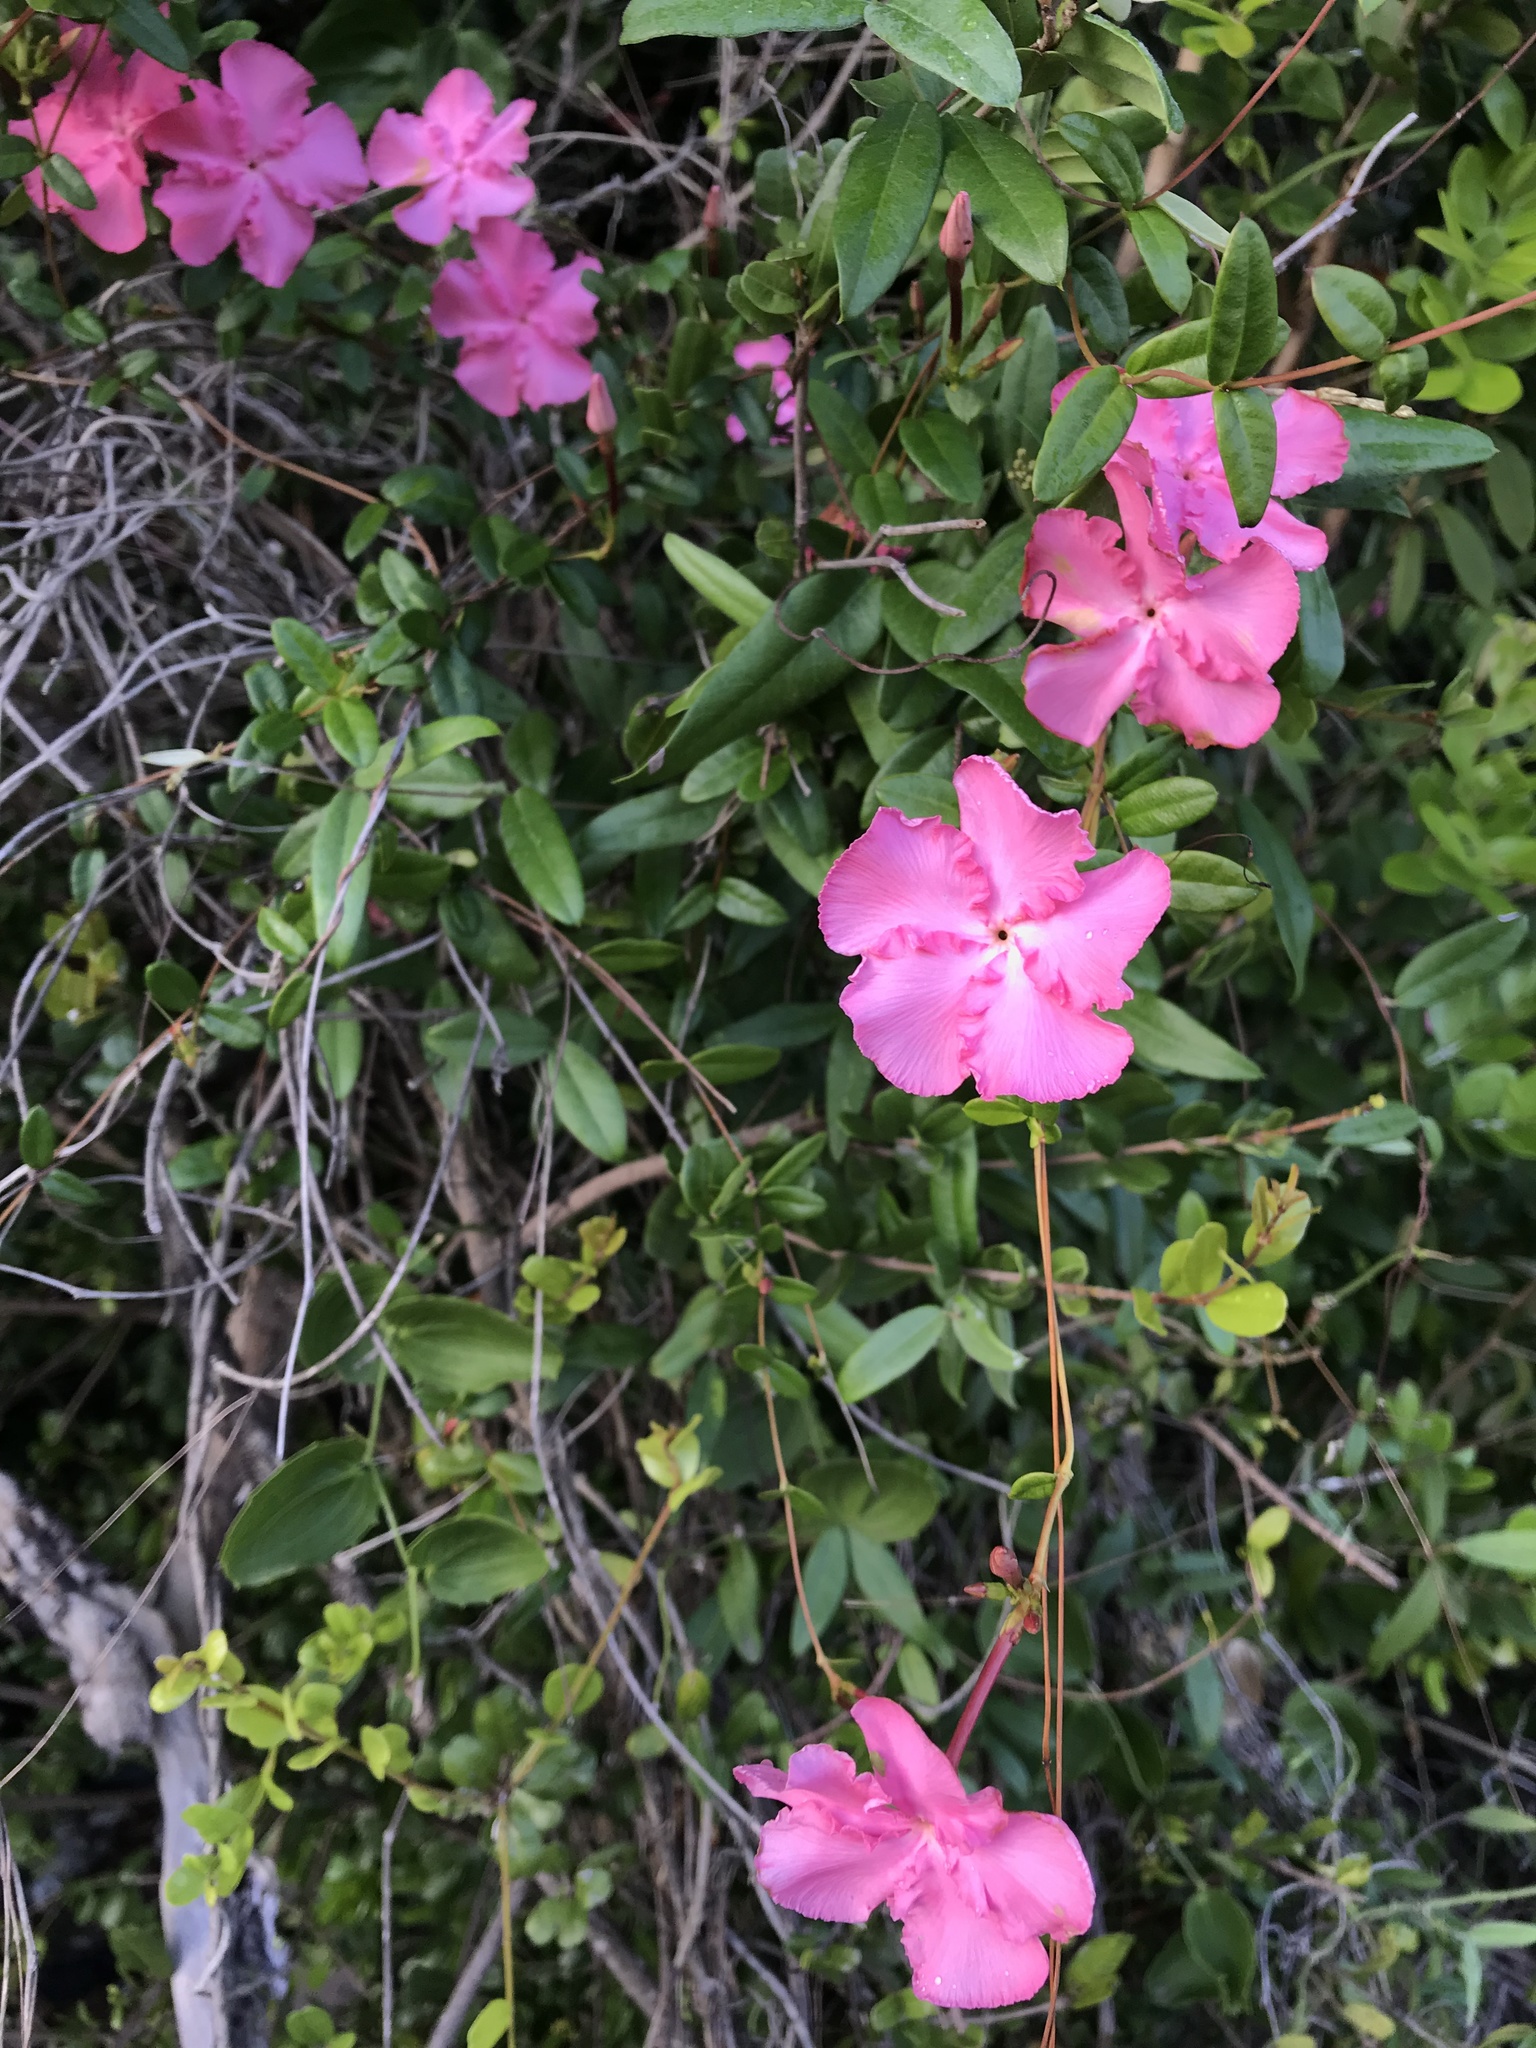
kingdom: Plantae
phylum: Tracheophyta
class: Magnoliopsida
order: Gentianales
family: Apocynaceae
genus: Mesechites
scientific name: Mesechites roseus
